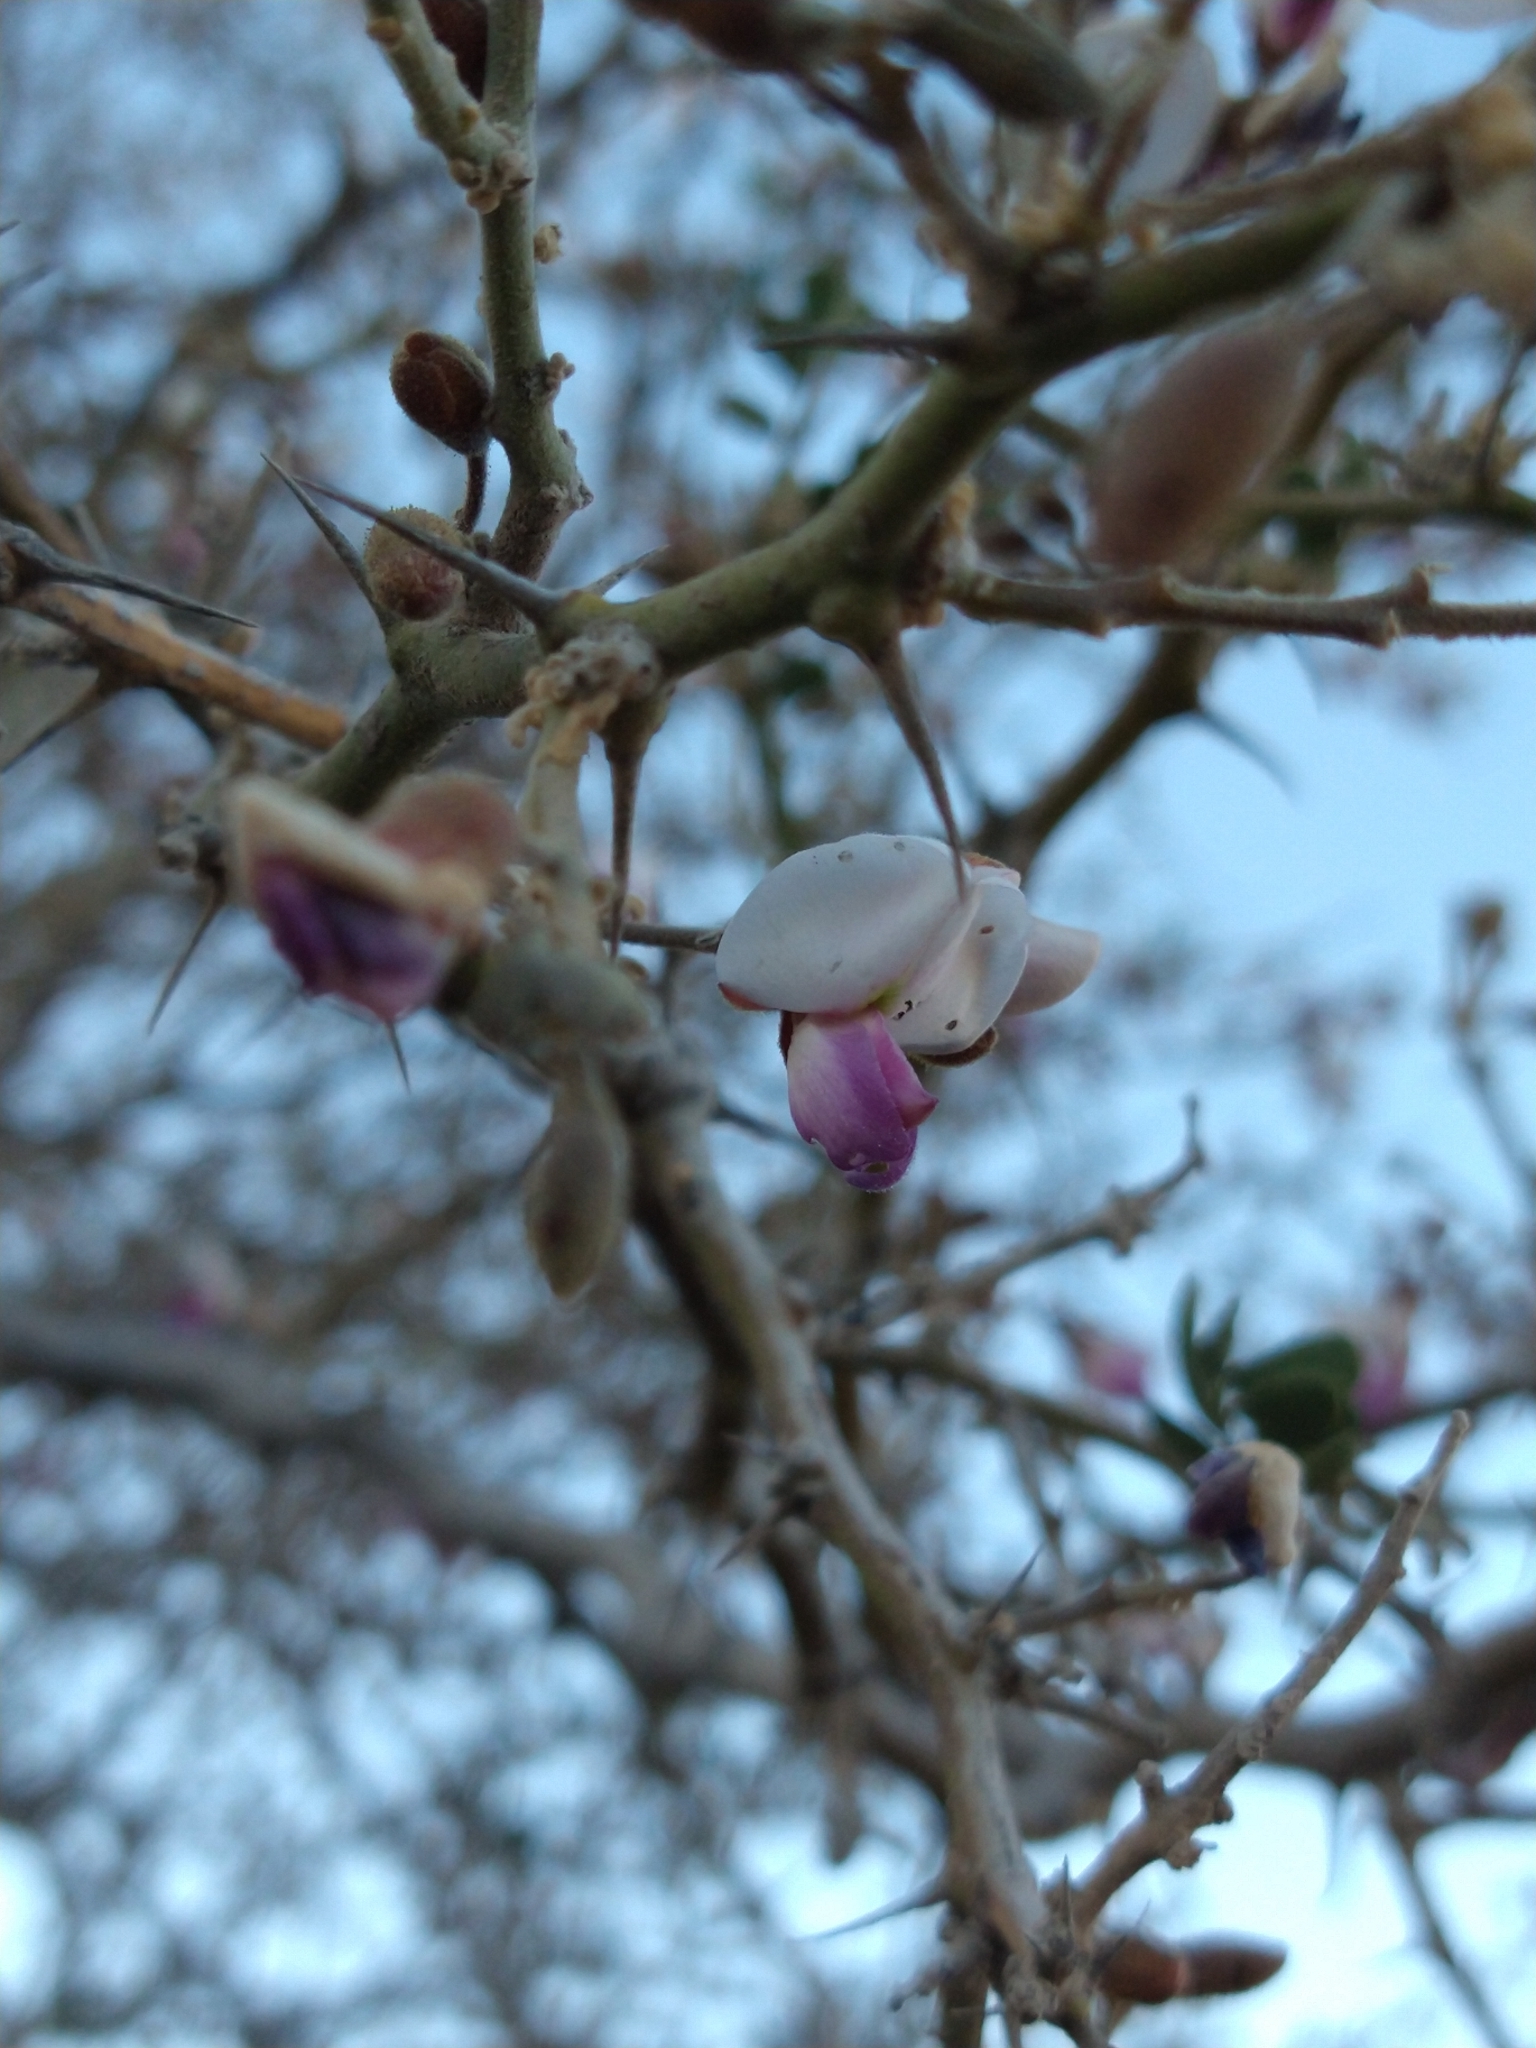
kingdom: Plantae
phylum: Tracheophyta
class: Magnoliopsida
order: Fabales
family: Fabaceae
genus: Olneya
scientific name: Olneya tesota
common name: Desert ironwood
